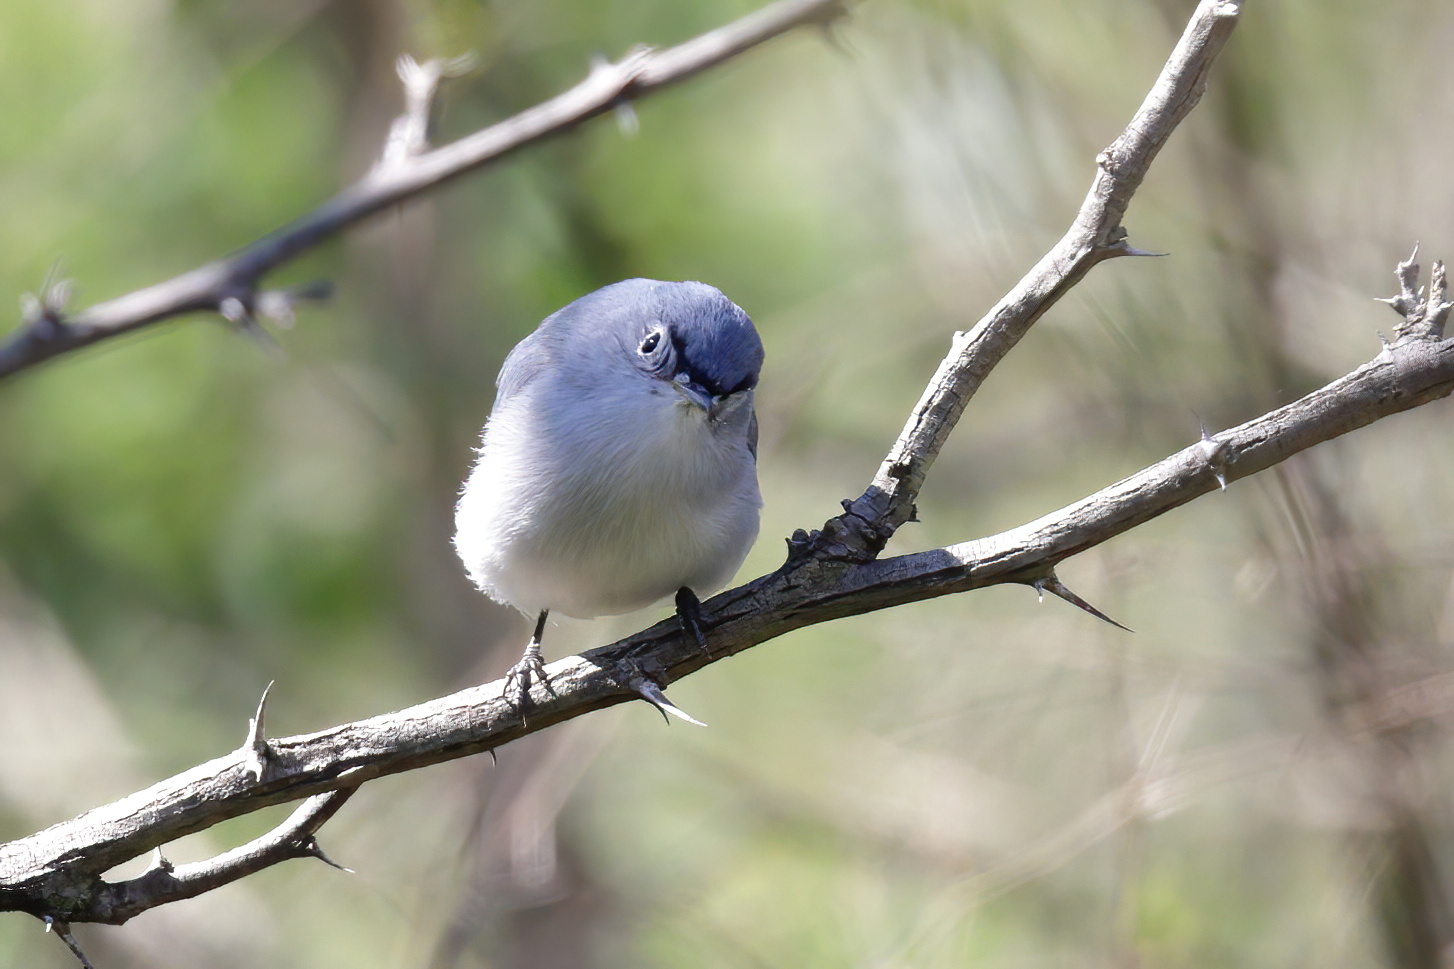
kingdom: Animalia
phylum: Chordata
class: Aves
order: Passeriformes
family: Polioptilidae
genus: Polioptila
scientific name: Polioptila caerulea
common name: Blue-gray gnatcatcher
